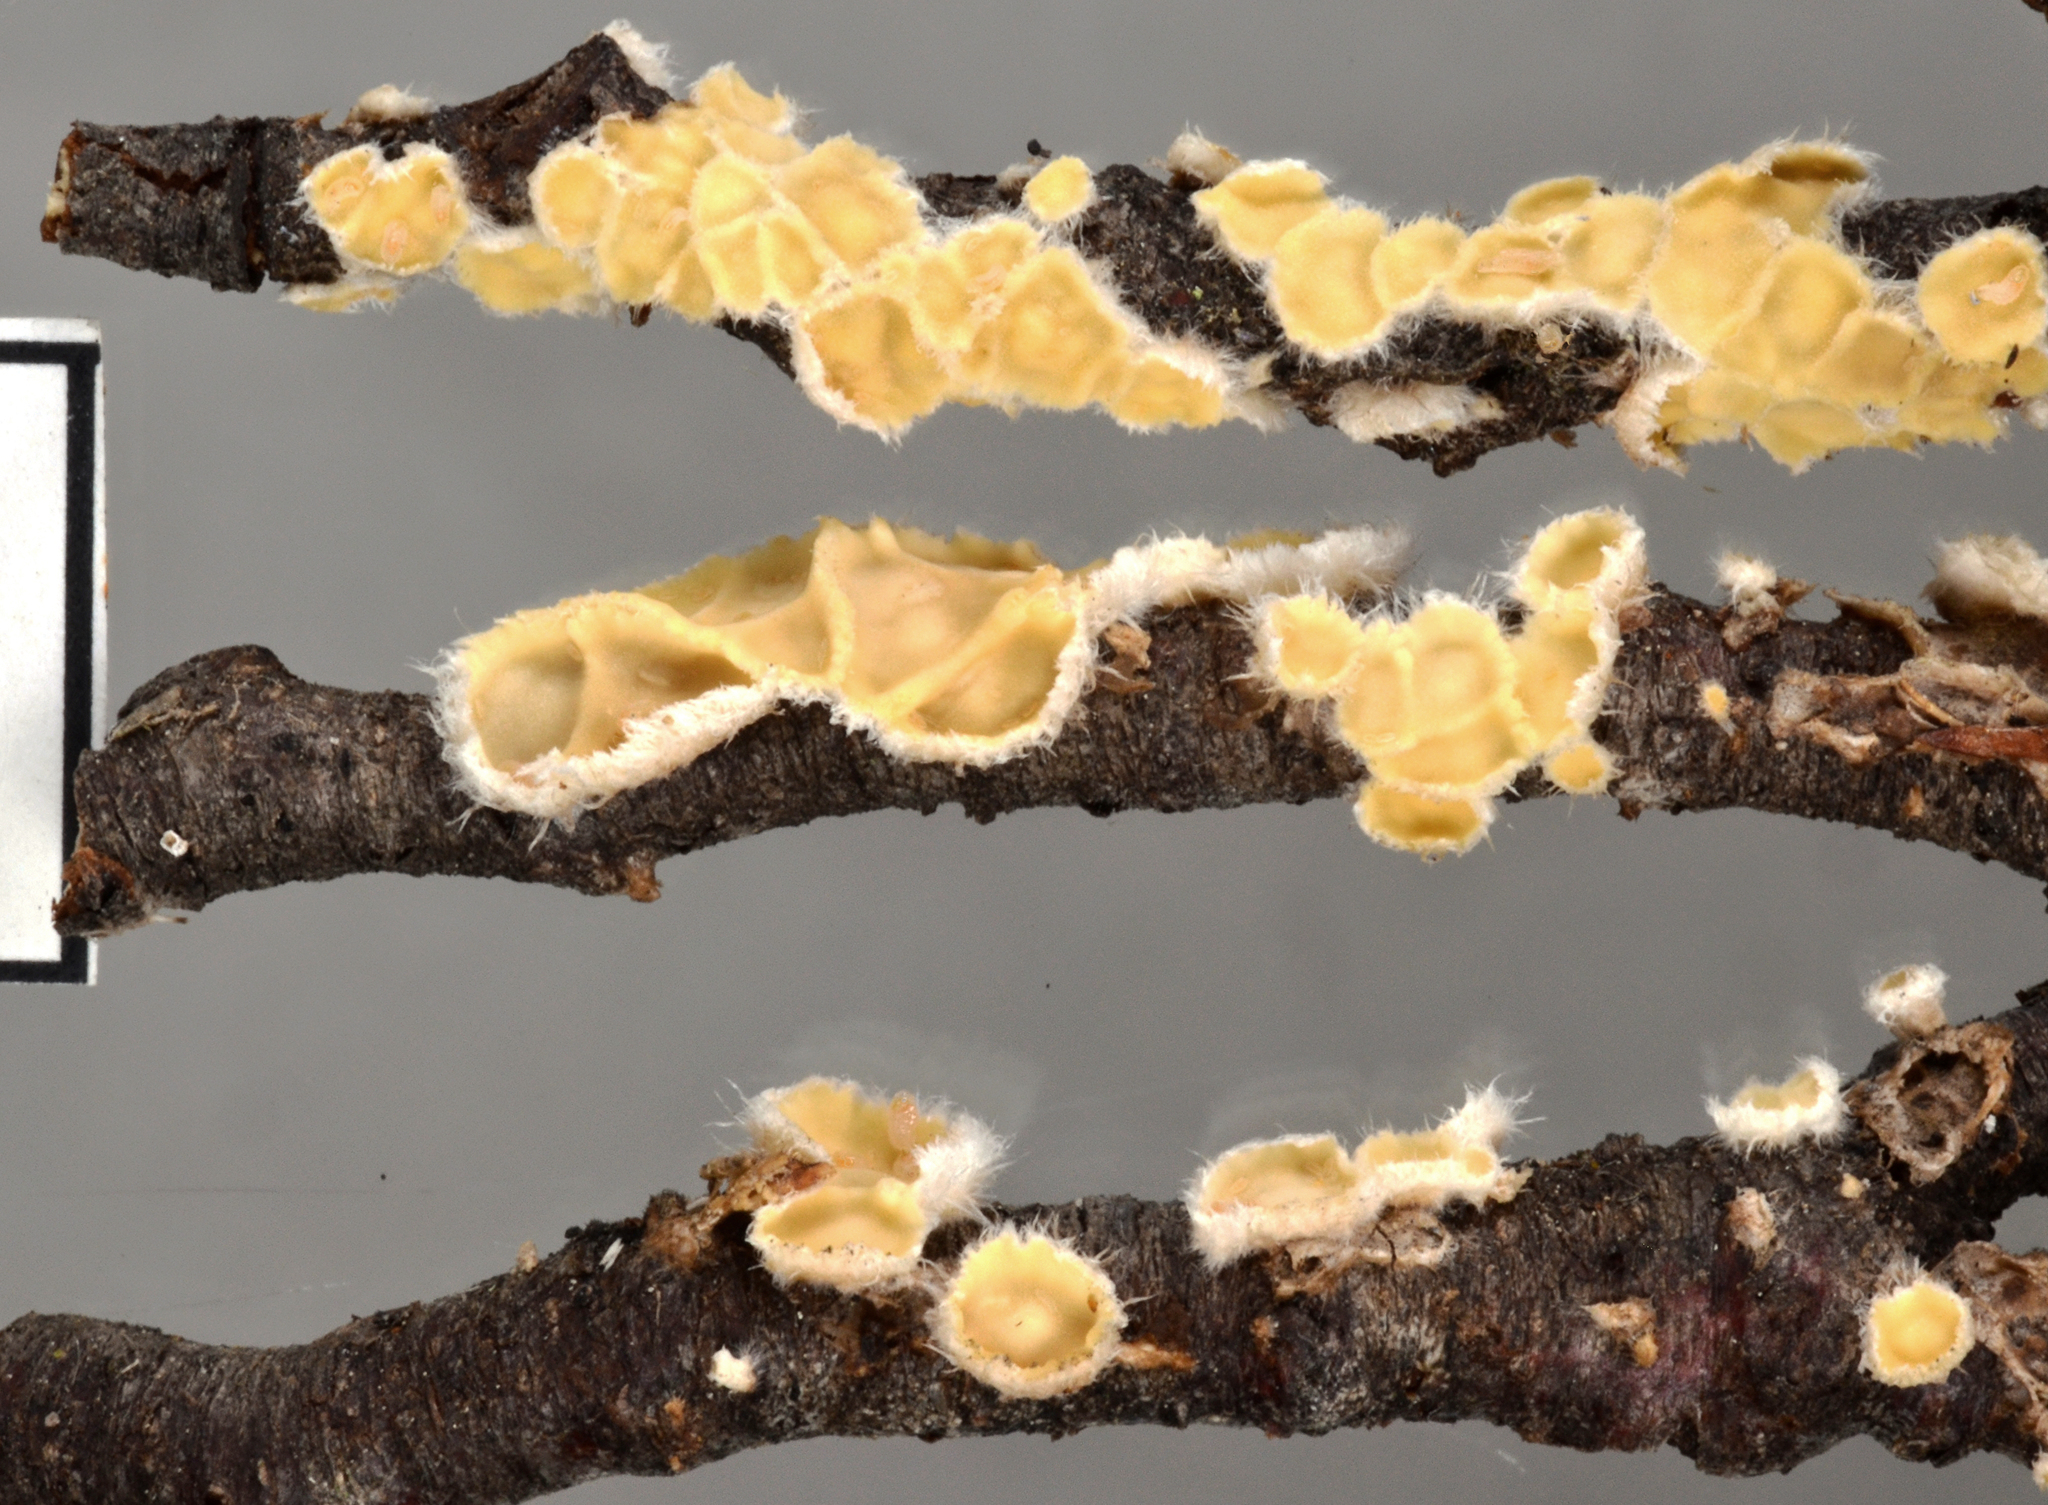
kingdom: Fungi
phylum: Basidiomycota
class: Agaricomycetes
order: Russulales
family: Stereaceae
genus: Stereodiscus
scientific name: Stereodiscus limonisporus
